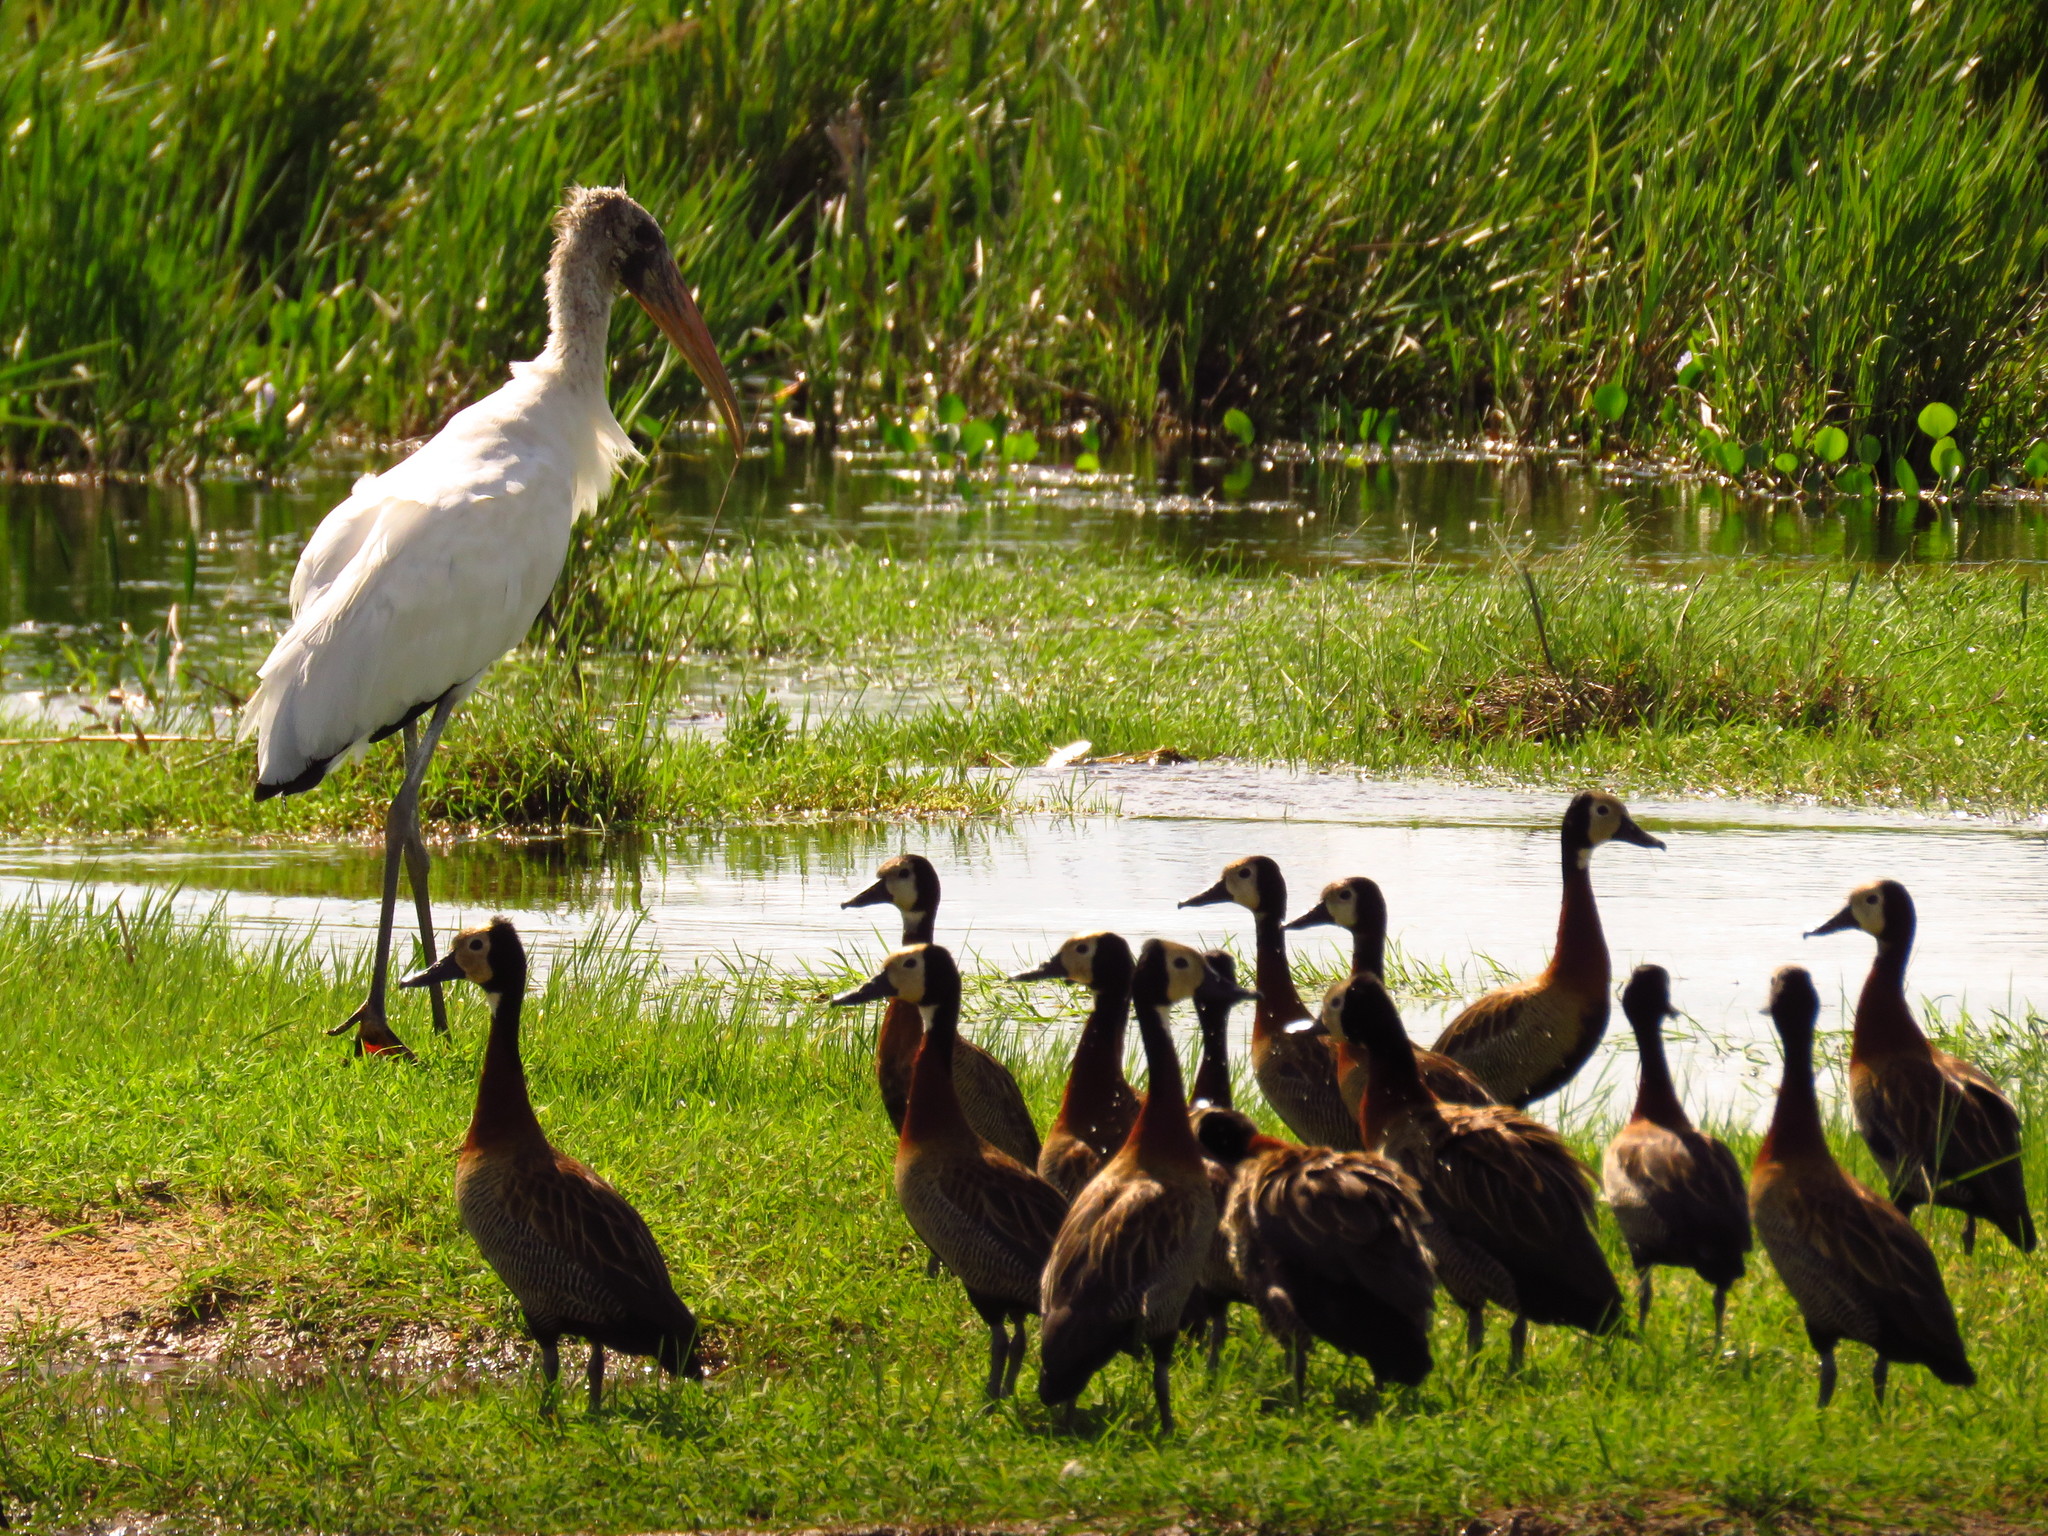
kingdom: Animalia
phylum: Chordata
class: Aves
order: Ciconiiformes
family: Ciconiidae
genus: Mycteria
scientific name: Mycteria americana
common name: Wood stork
